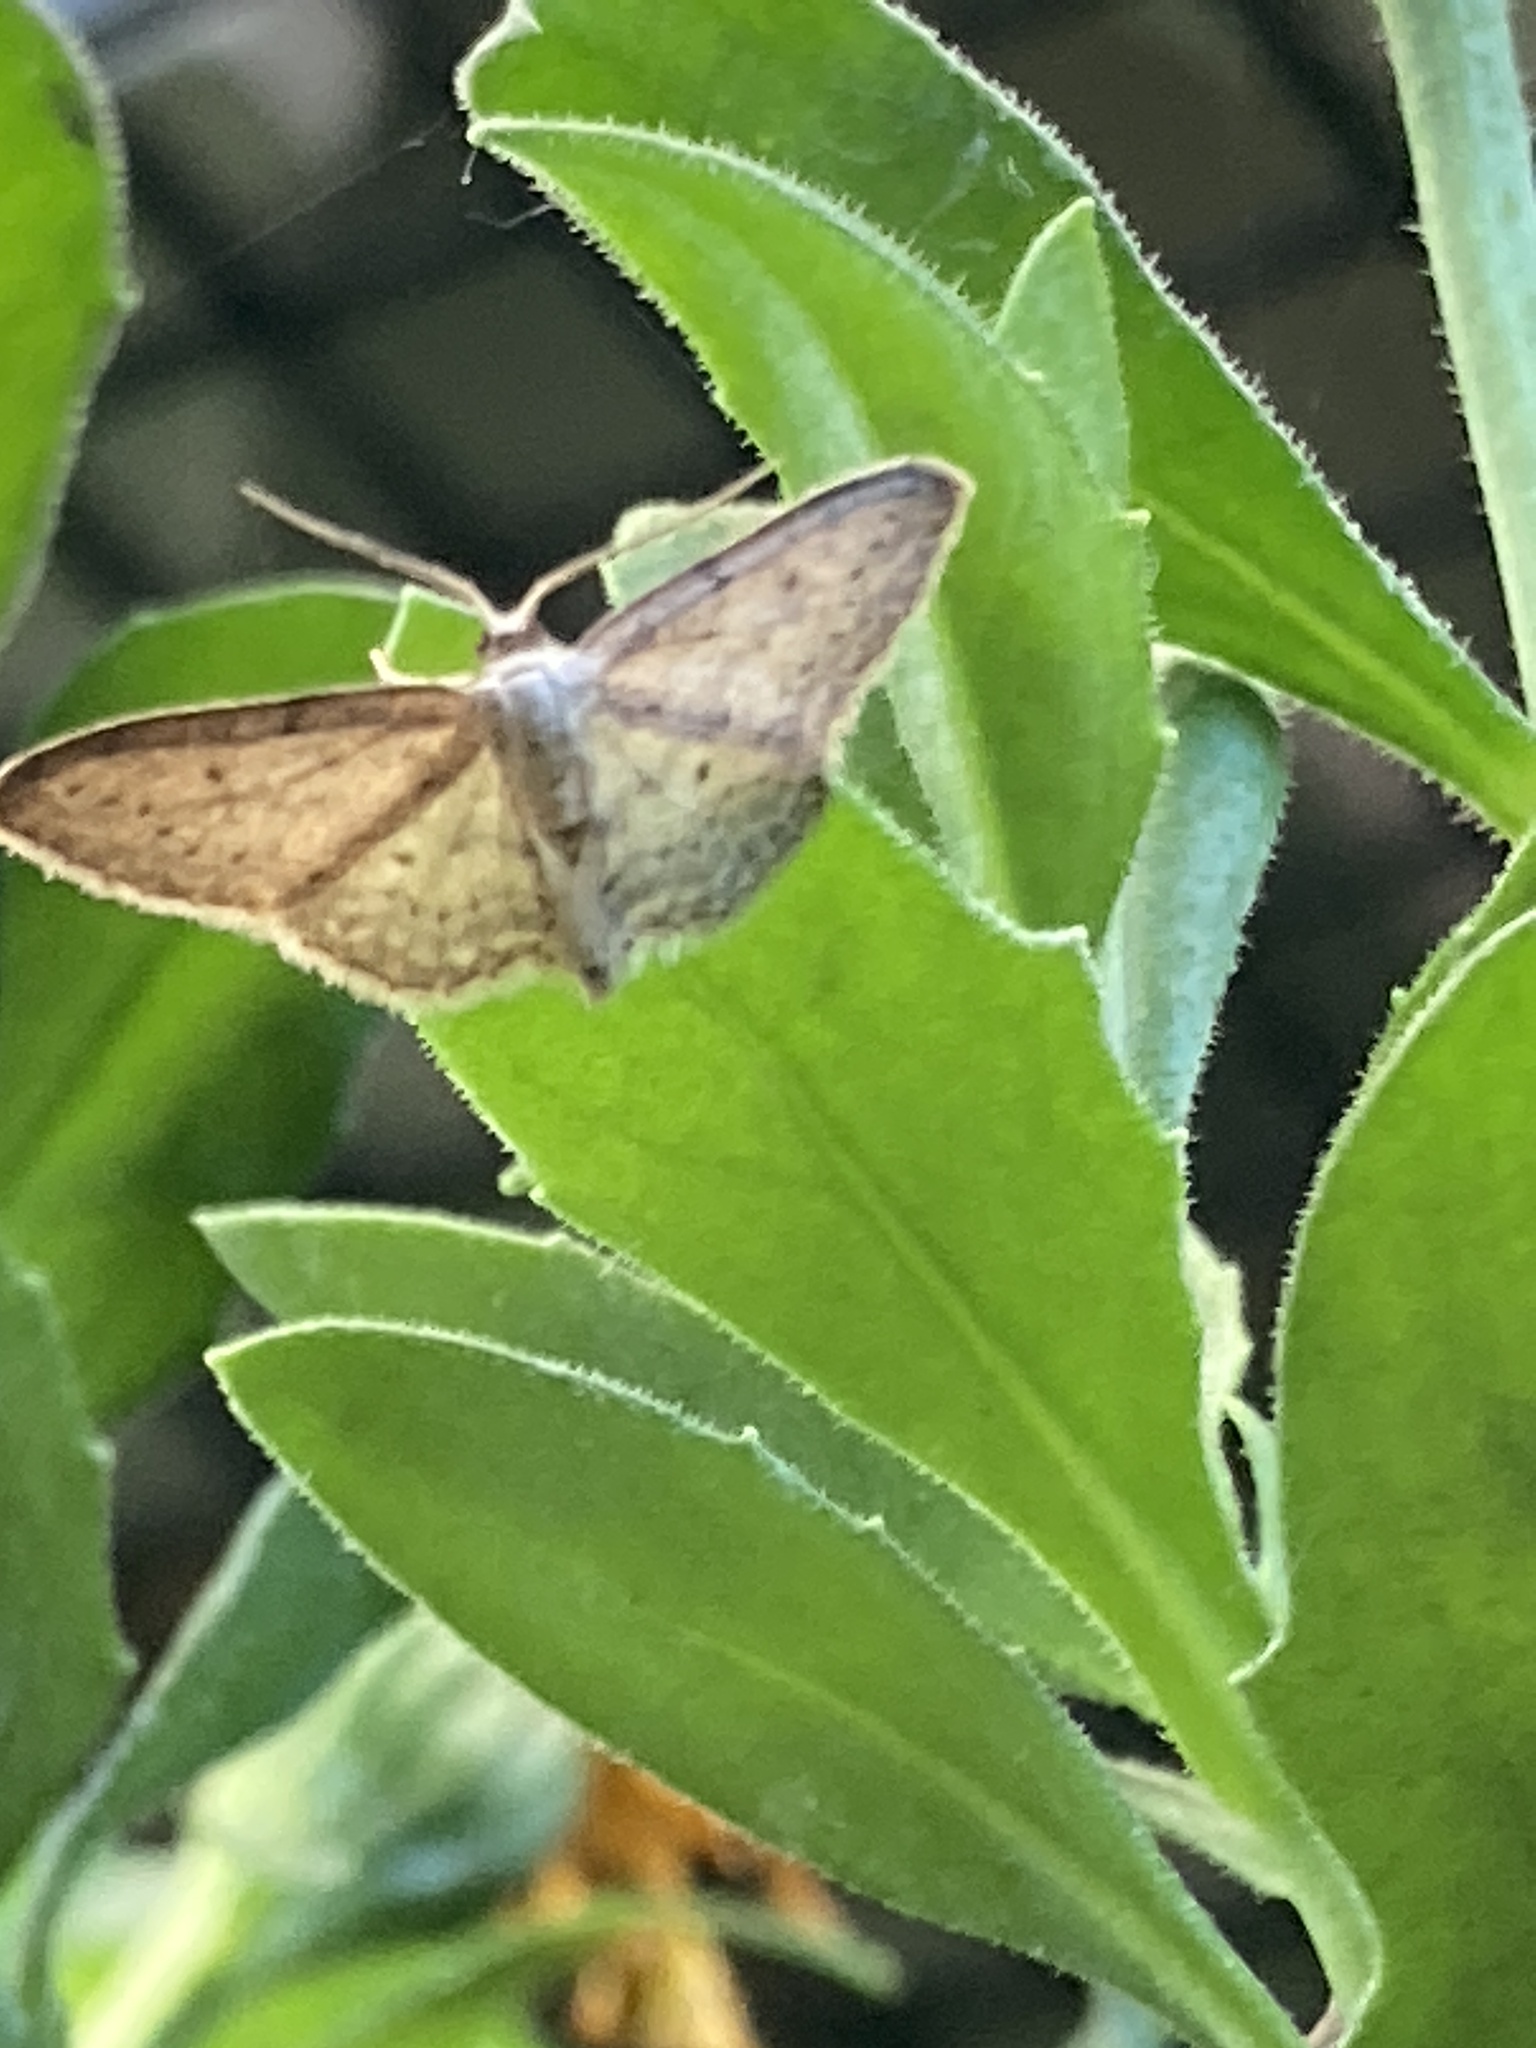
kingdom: Animalia
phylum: Arthropoda
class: Insecta
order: Lepidoptera
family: Geometridae
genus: Idaea
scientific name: Idaea seriata
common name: Small dusty wave
